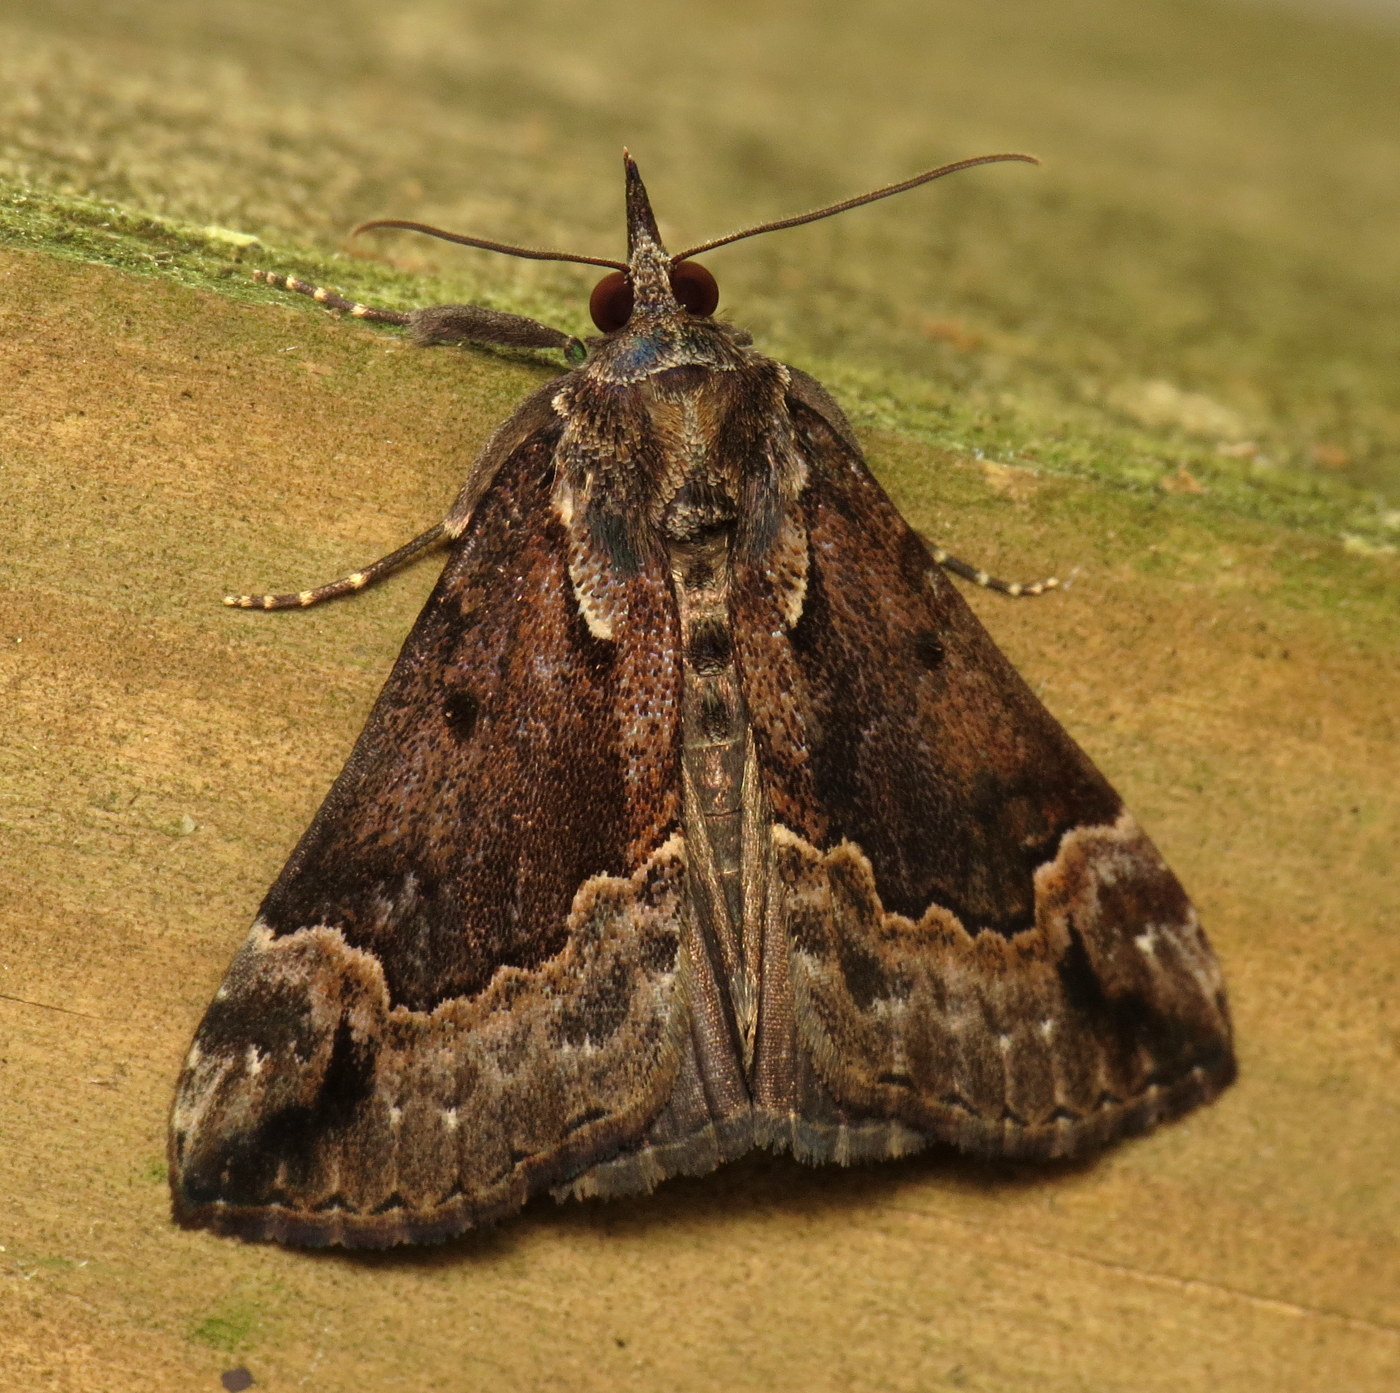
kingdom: Animalia
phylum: Arthropoda
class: Insecta
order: Lepidoptera
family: Erebidae
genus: Hypena
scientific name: Hypena baltimoralis
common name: Baltimore snout
